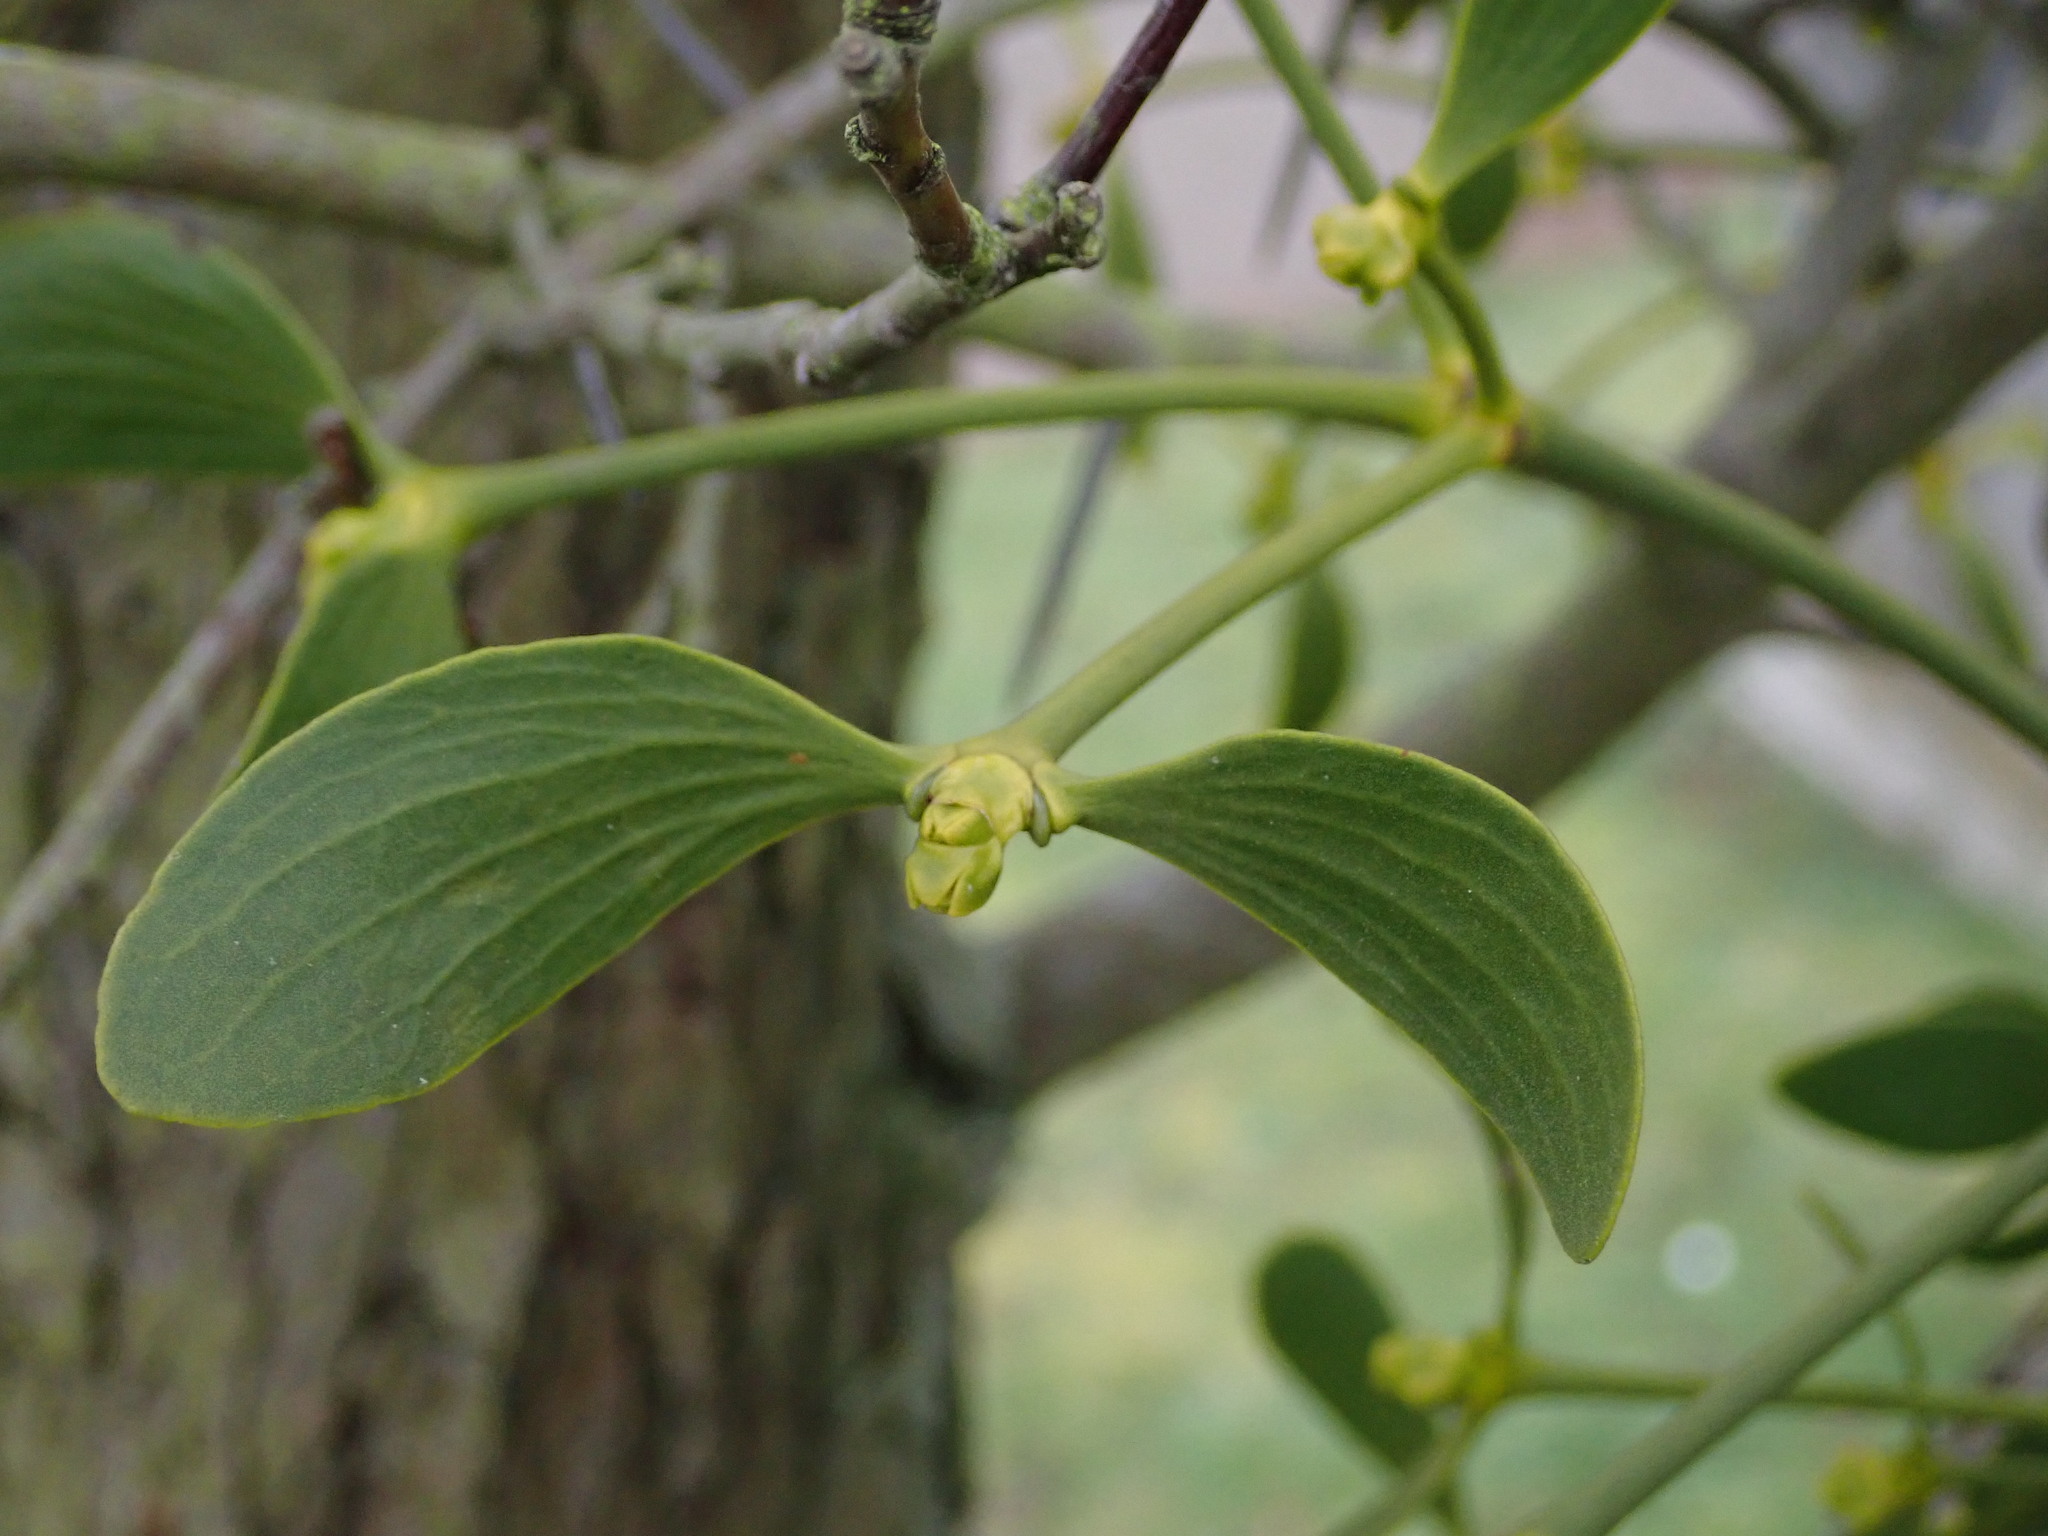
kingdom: Plantae
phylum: Tracheophyta
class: Magnoliopsida
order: Santalales
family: Viscaceae
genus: Viscum
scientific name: Viscum album
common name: Mistletoe
